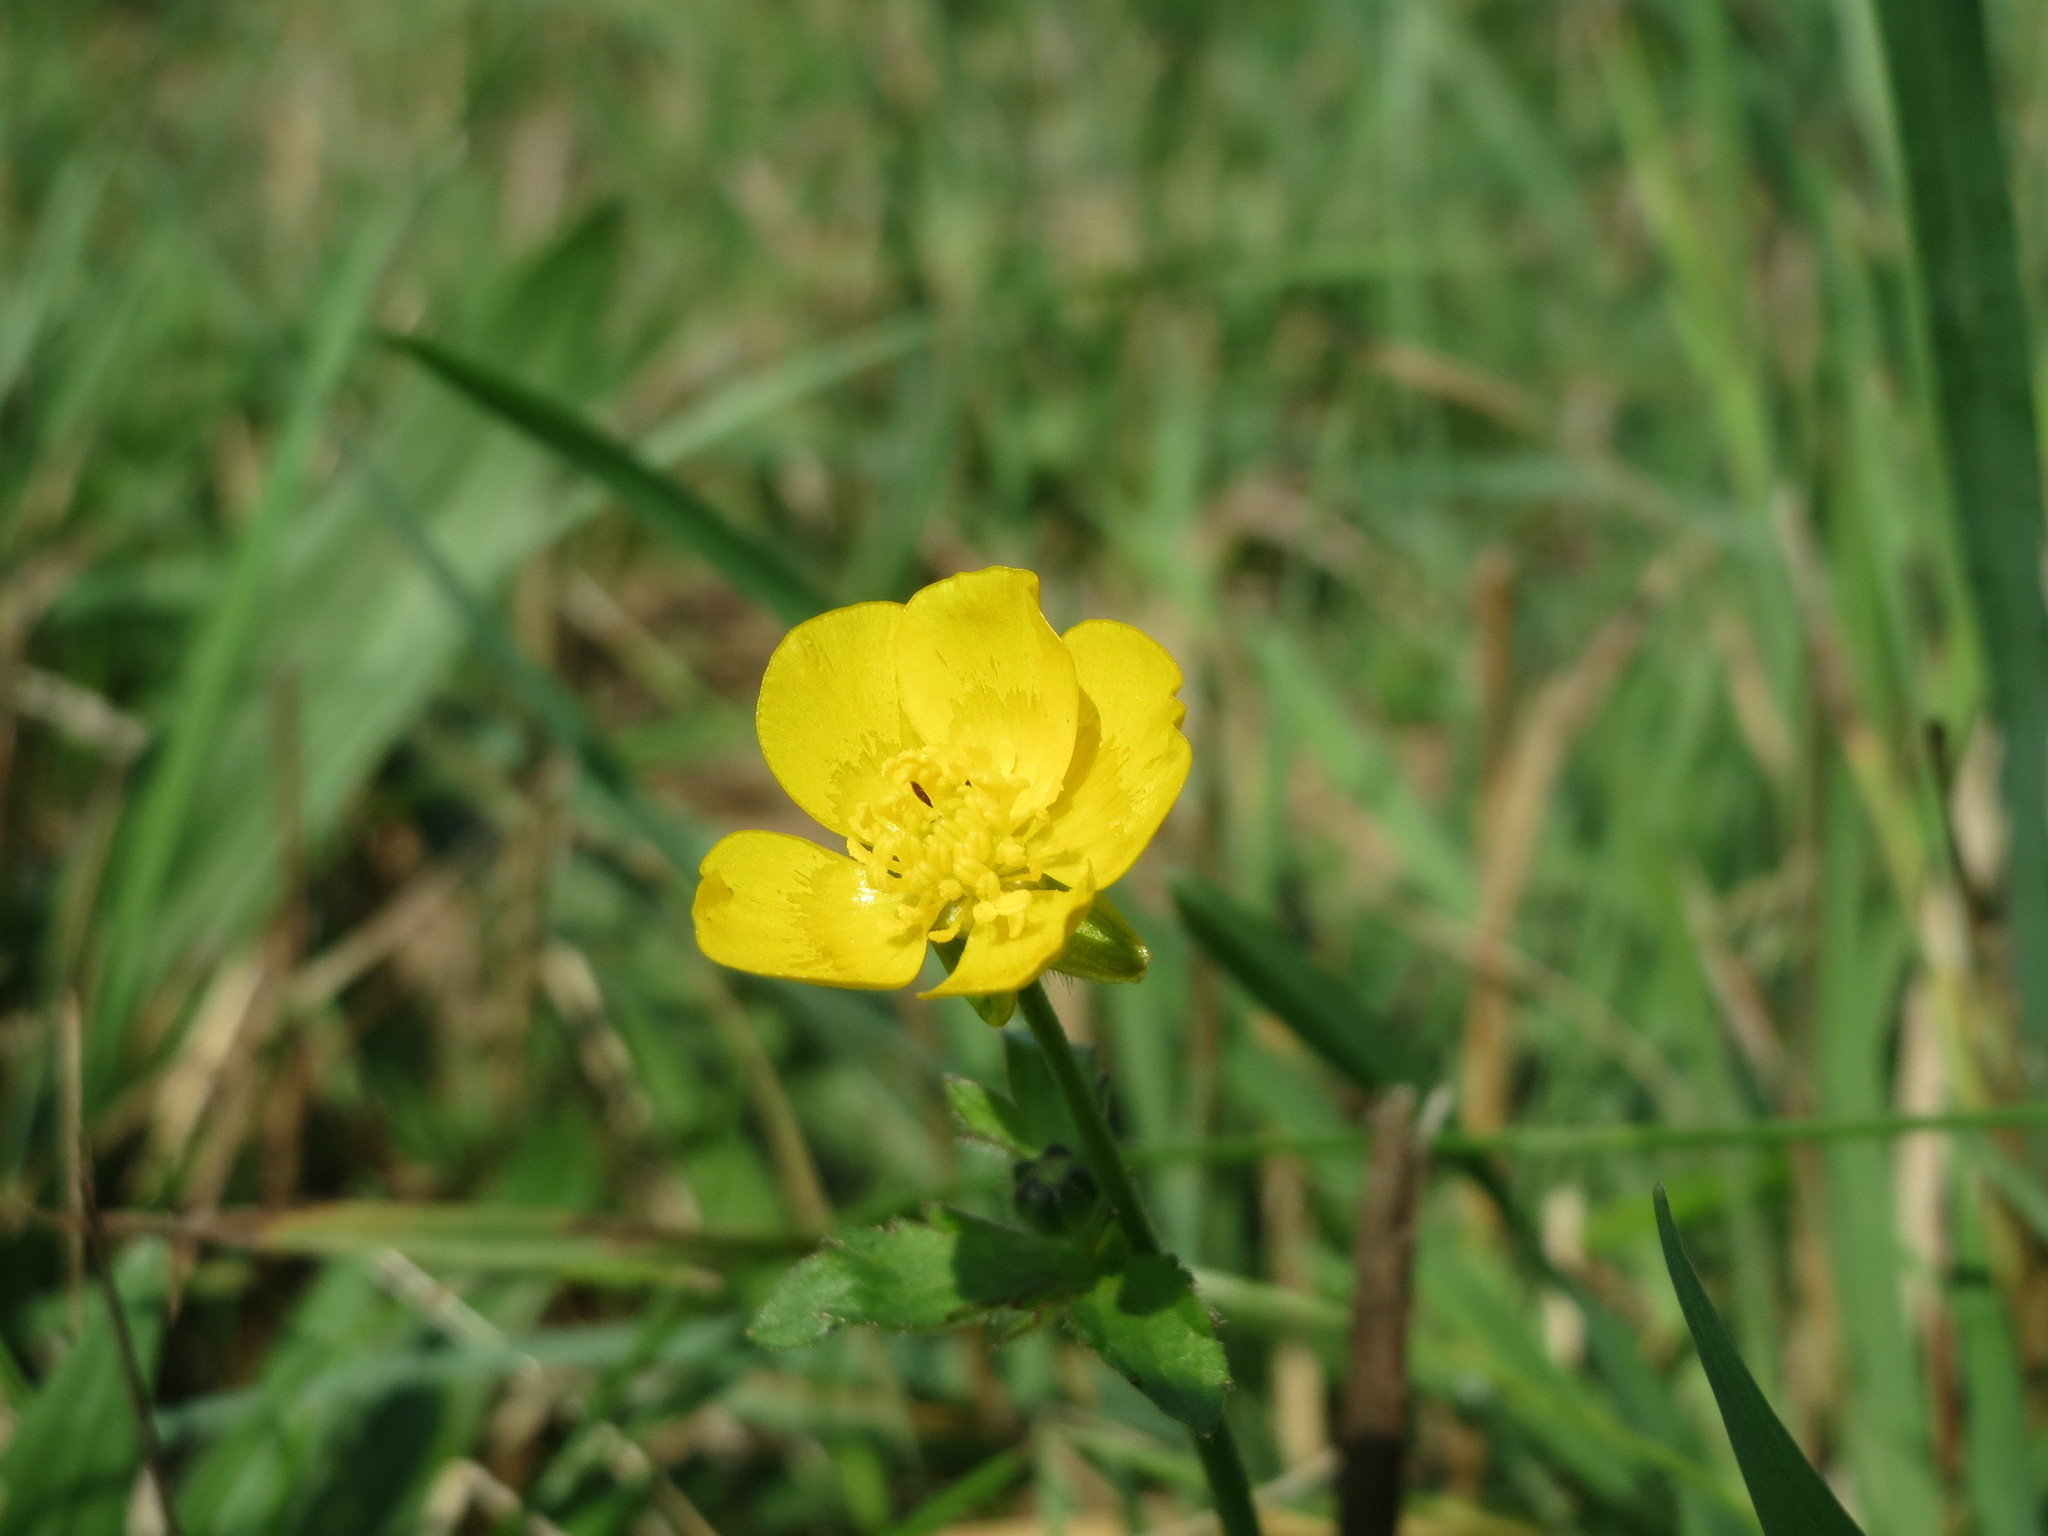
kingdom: Plantae
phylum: Tracheophyta
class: Magnoliopsida
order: Ranunculales
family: Ranunculaceae
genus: Ranunculus
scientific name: Ranunculus acris
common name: Meadow buttercup
